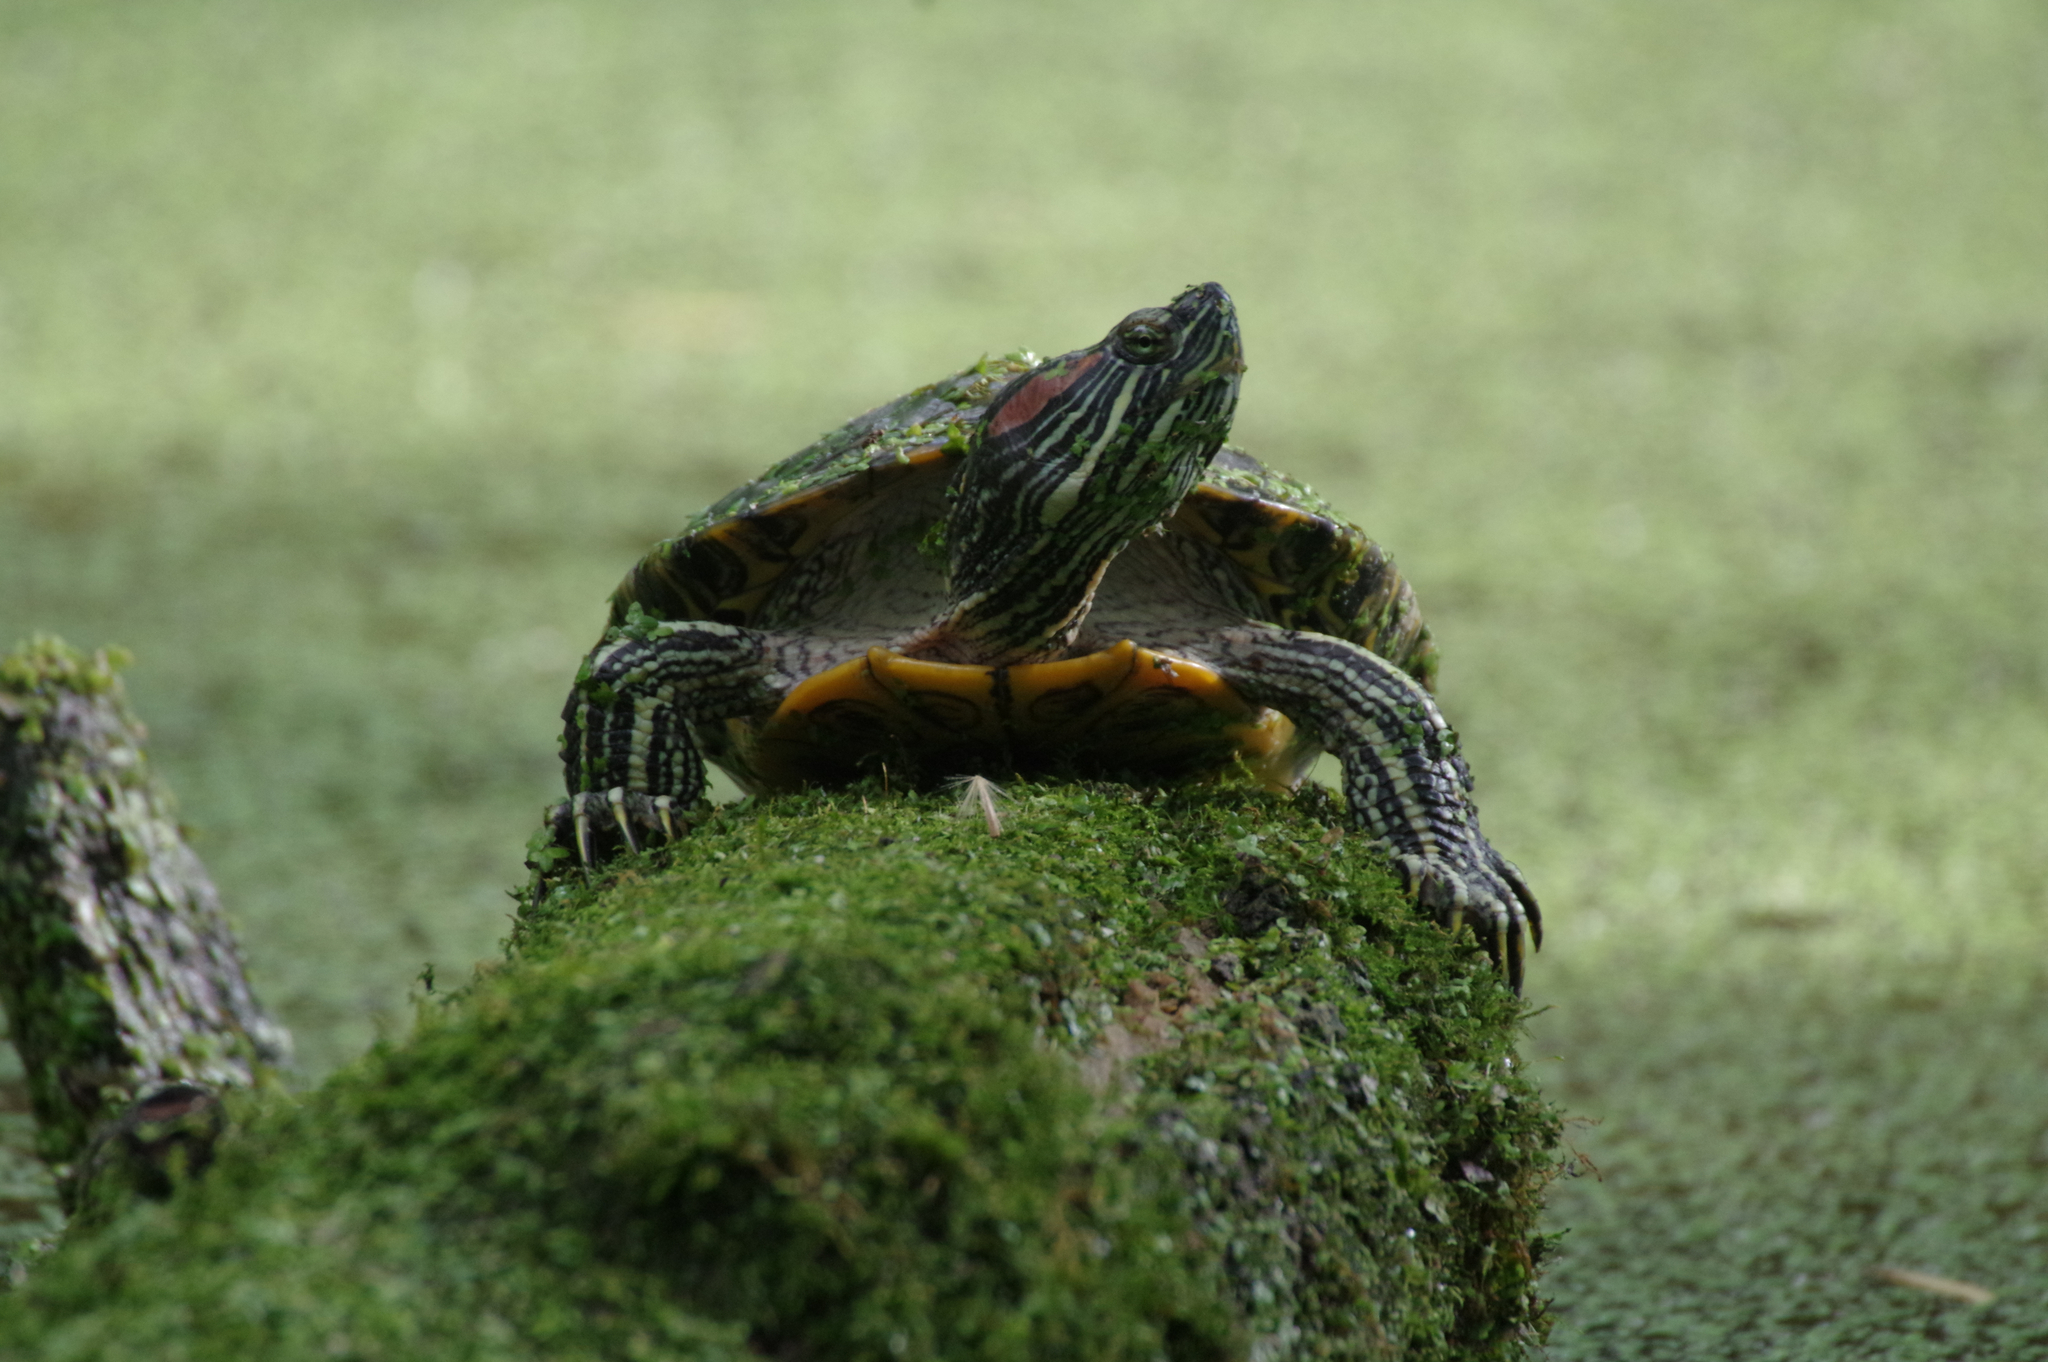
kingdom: Animalia
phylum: Chordata
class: Testudines
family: Emydidae
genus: Trachemys
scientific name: Trachemys scripta
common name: Slider
